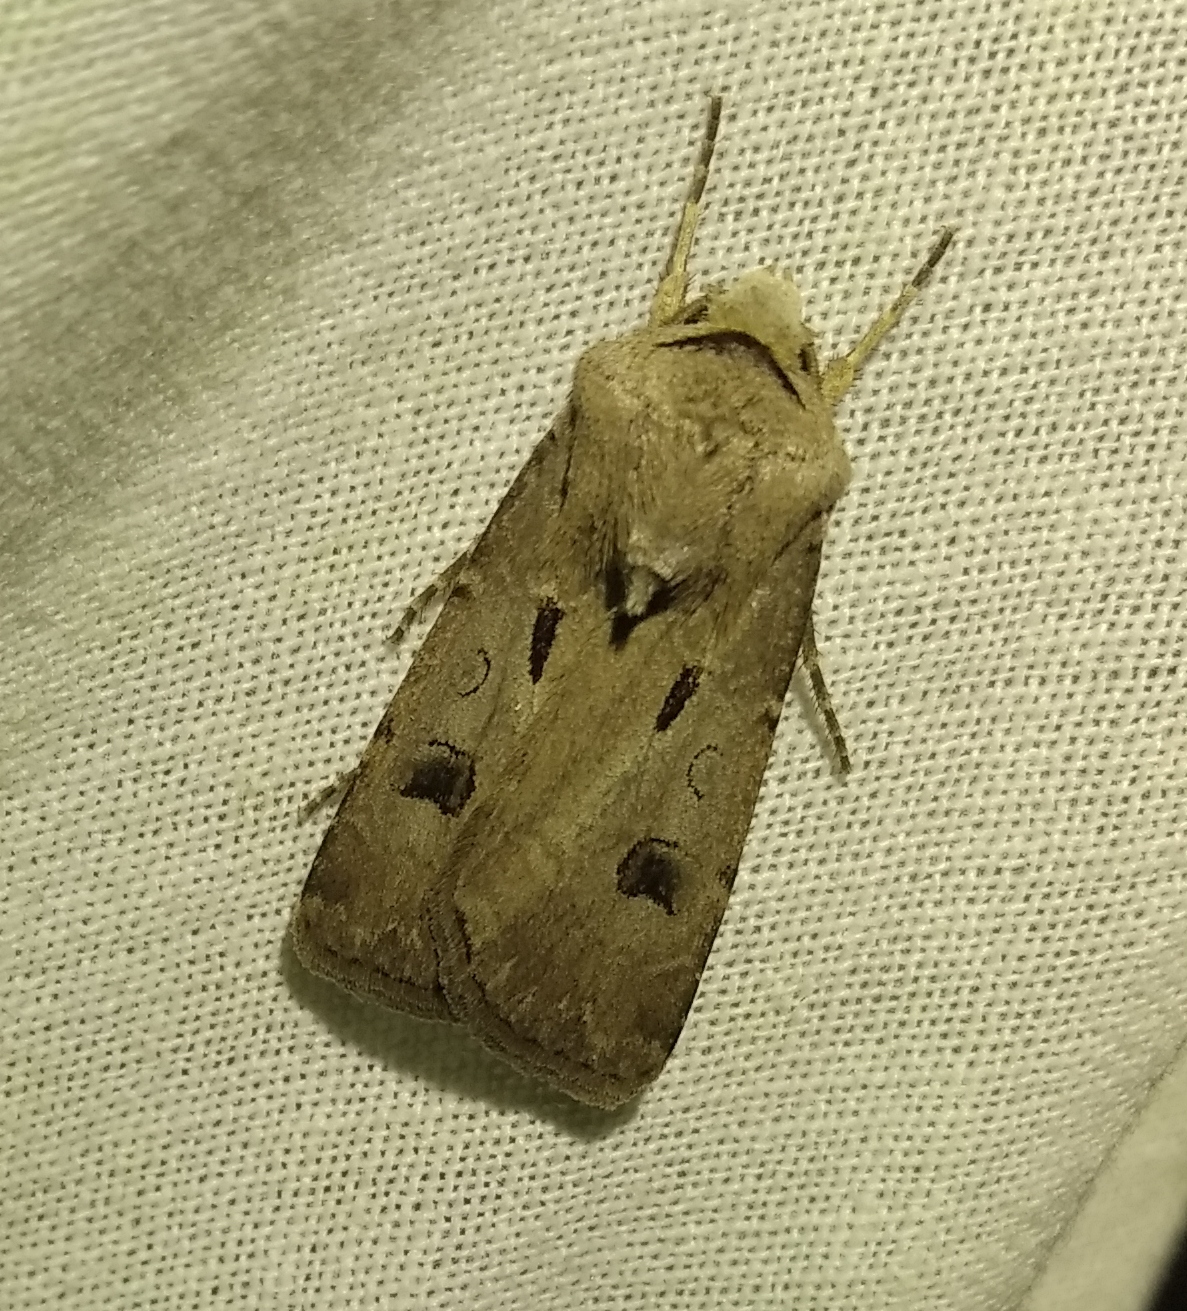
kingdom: Animalia
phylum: Arthropoda
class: Insecta
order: Lepidoptera
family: Noctuidae
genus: Agrotis
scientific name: Agrotis exclamationis
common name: Heart and dart
